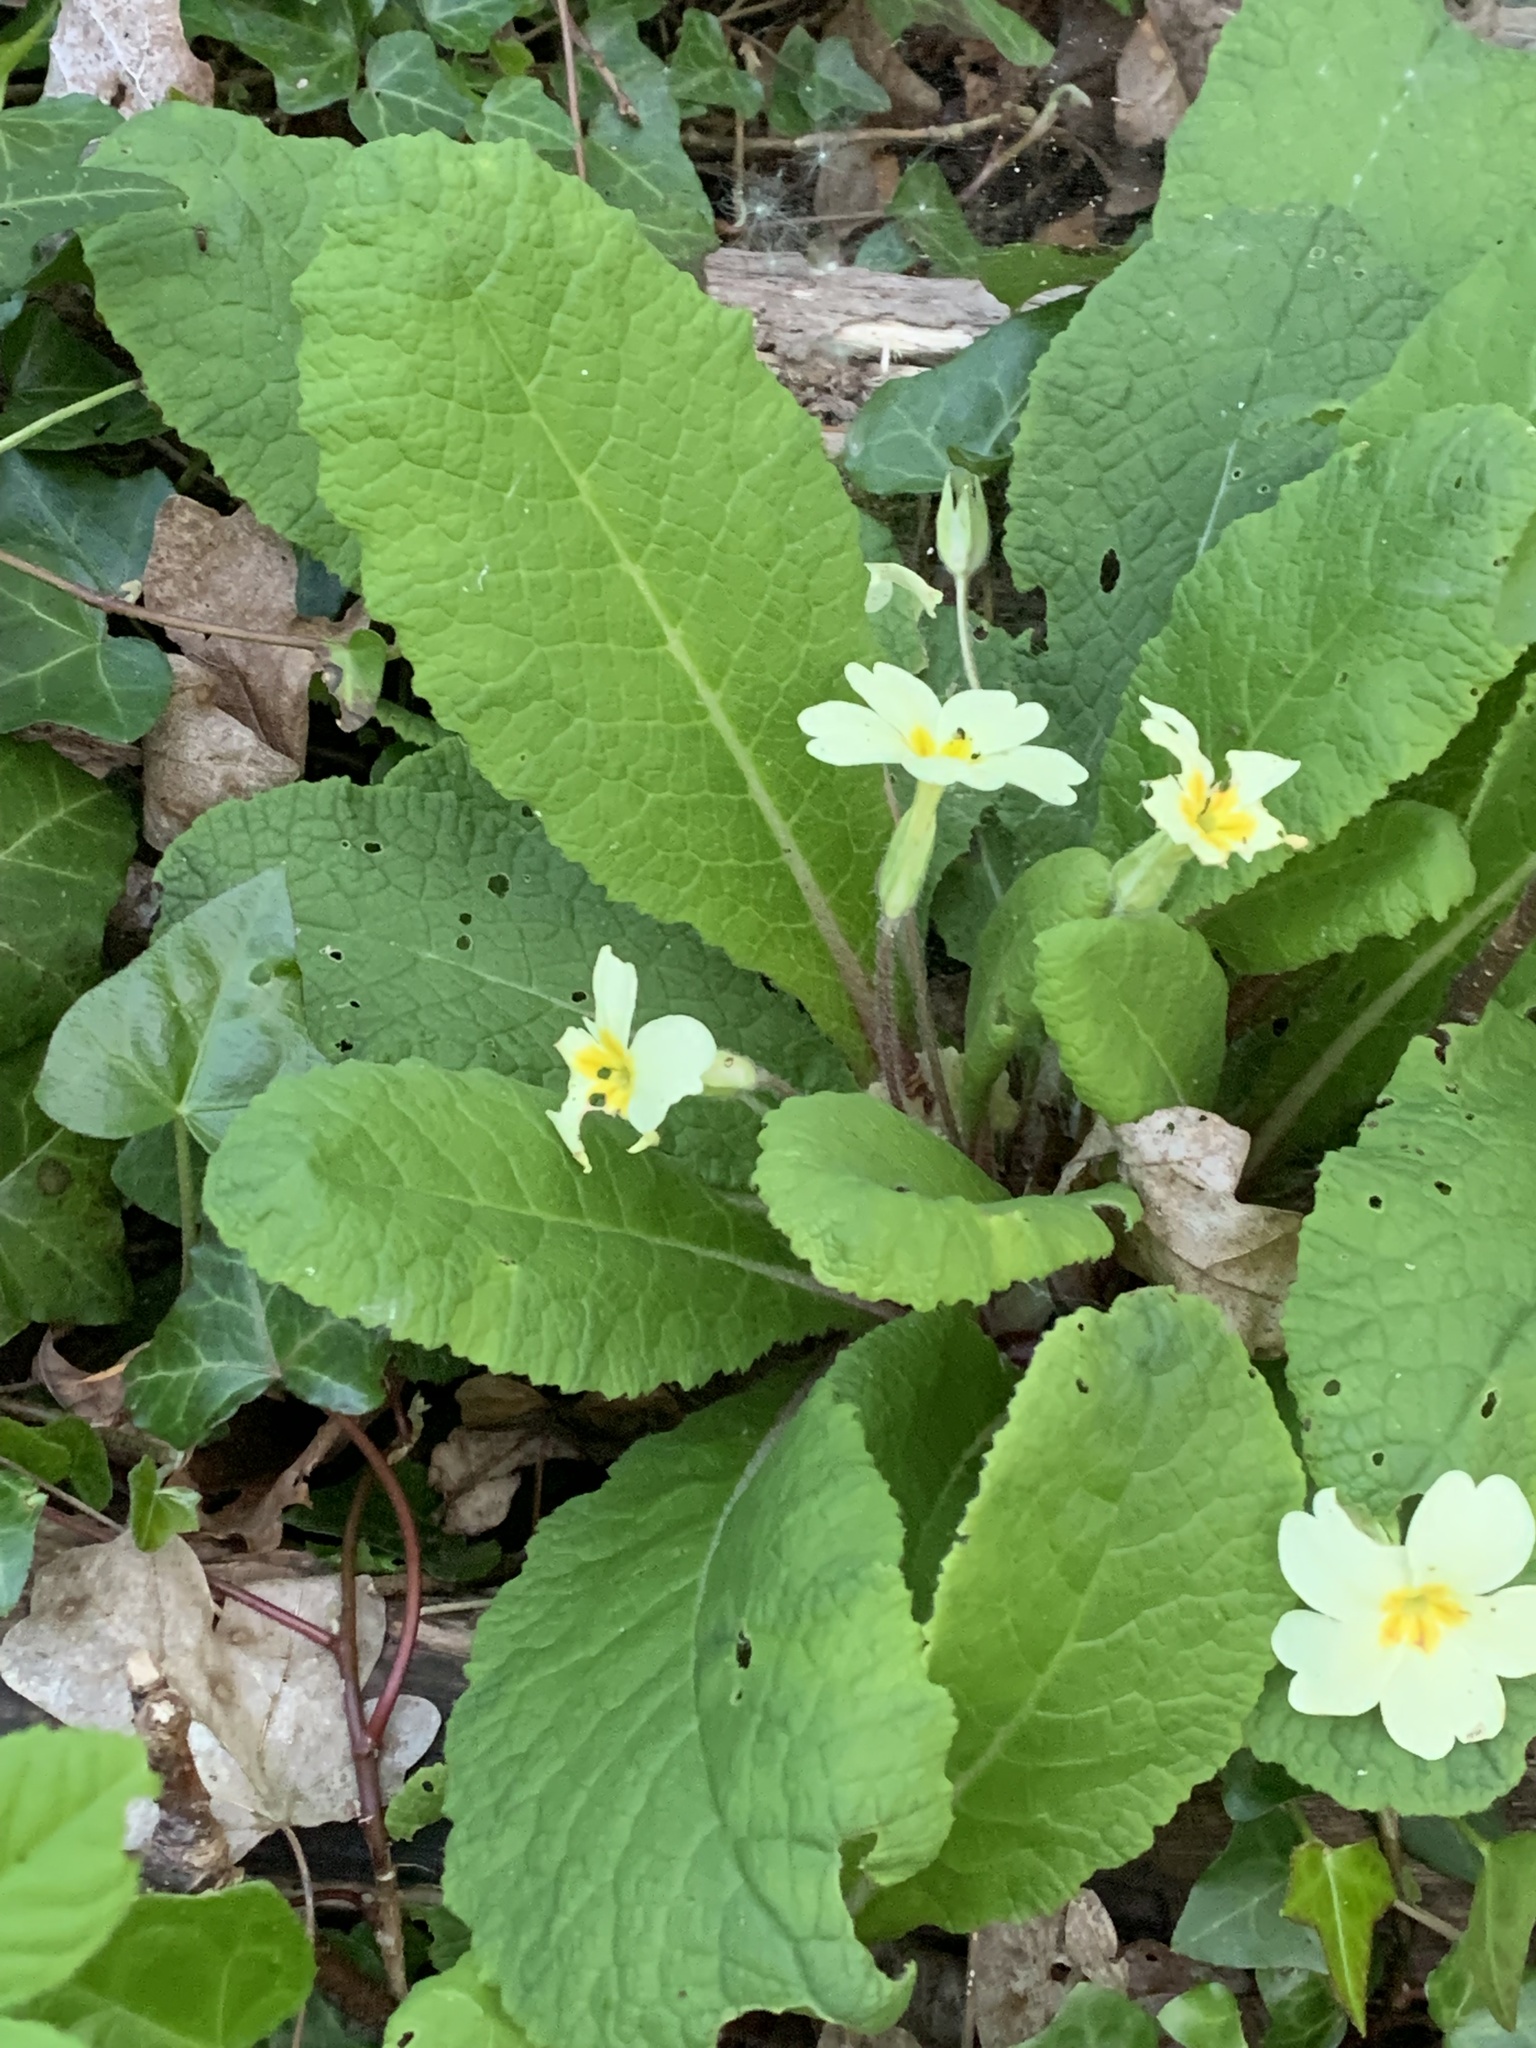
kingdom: Plantae
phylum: Tracheophyta
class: Magnoliopsida
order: Ericales
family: Primulaceae
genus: Primula
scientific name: Primula vulgaris
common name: Primrose
